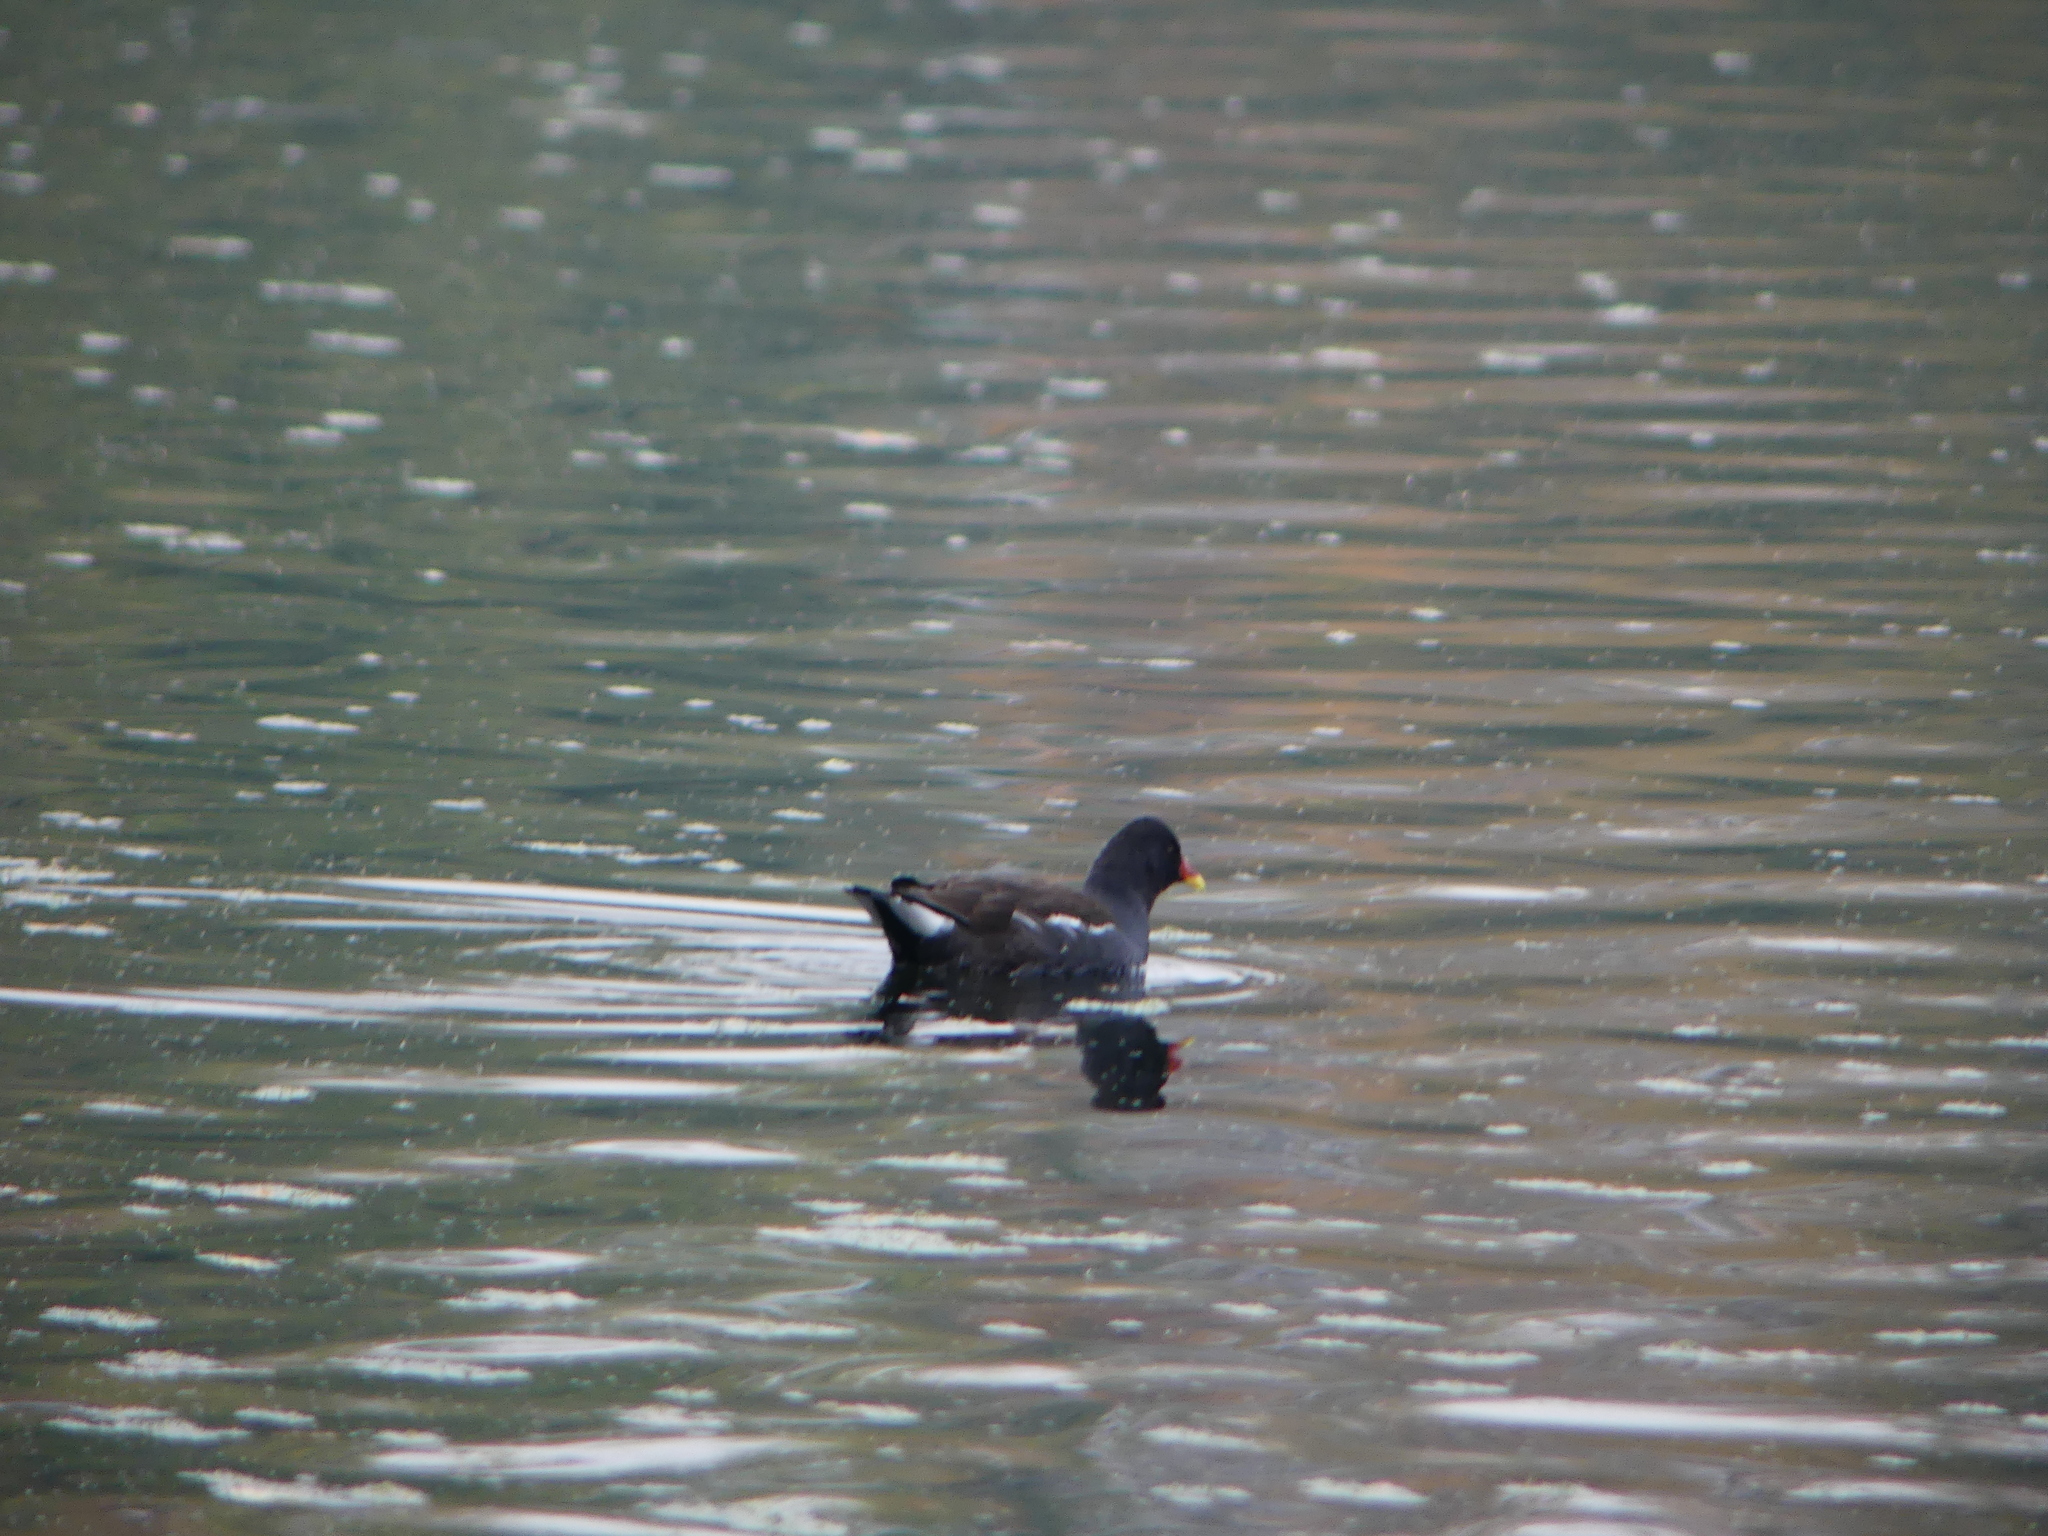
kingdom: Animalia
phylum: Chordata
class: Aves
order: Gruiformes
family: Rallidae
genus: Gallinula
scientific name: Gallinula chloropus
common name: Common moorhen
